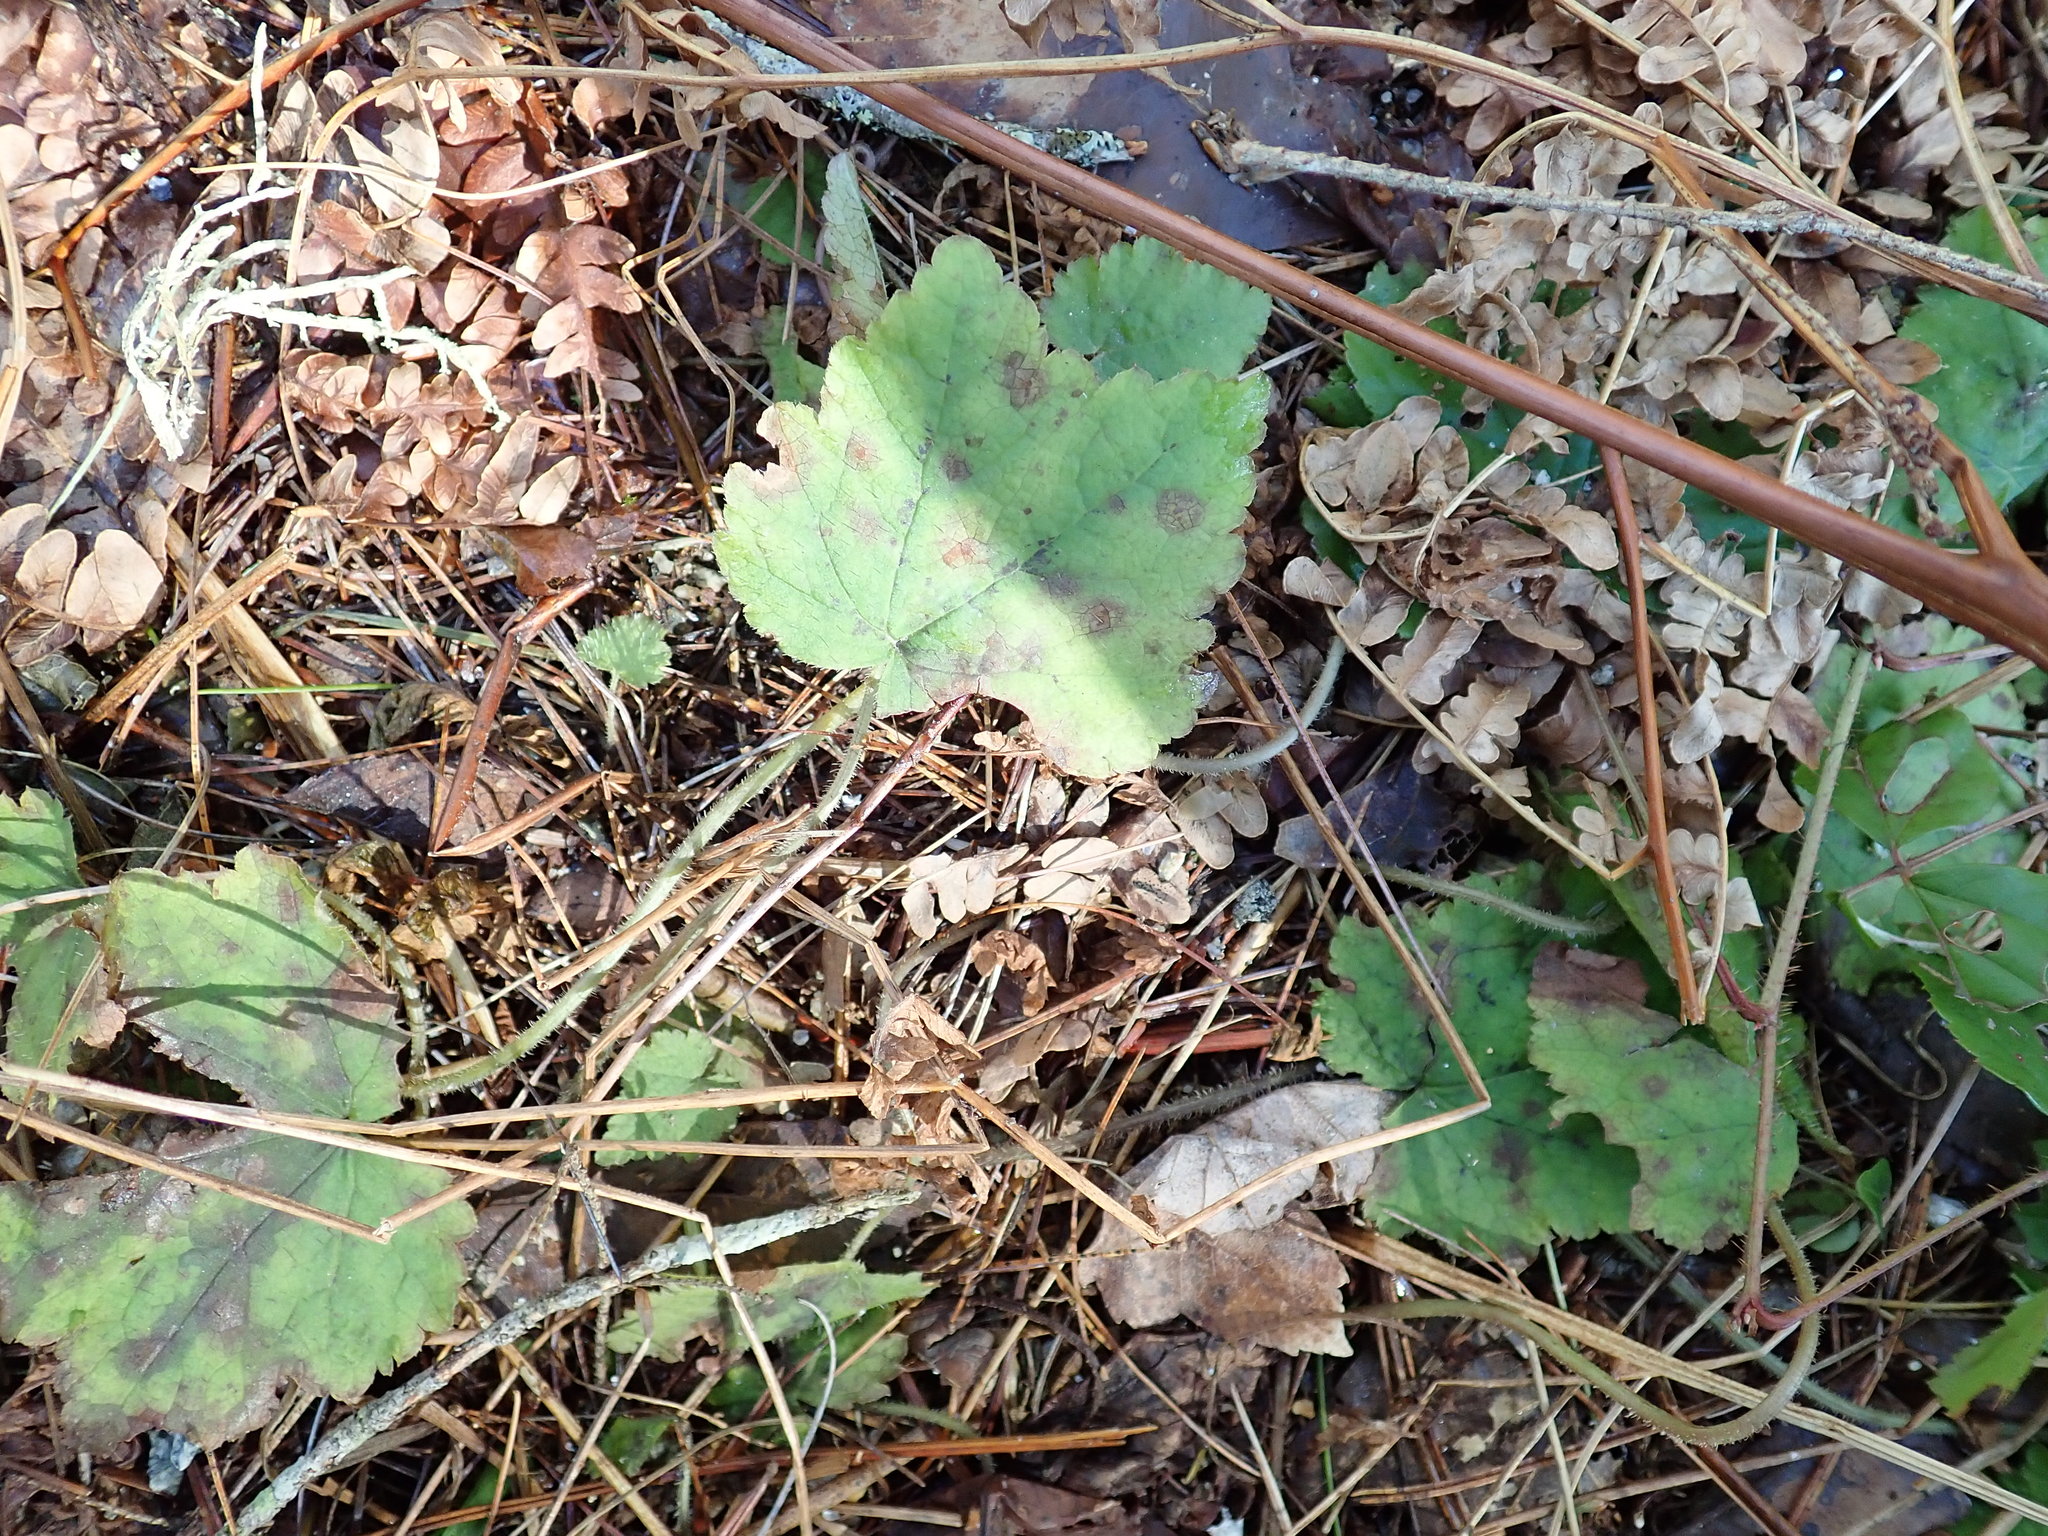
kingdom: Plantae
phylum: Tracheophyta
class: Magnoliopsida
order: Saxifragales
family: Saxifragaceae
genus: Tiarella
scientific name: Tiarella stolonifera
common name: Stoloniferous foamflower
